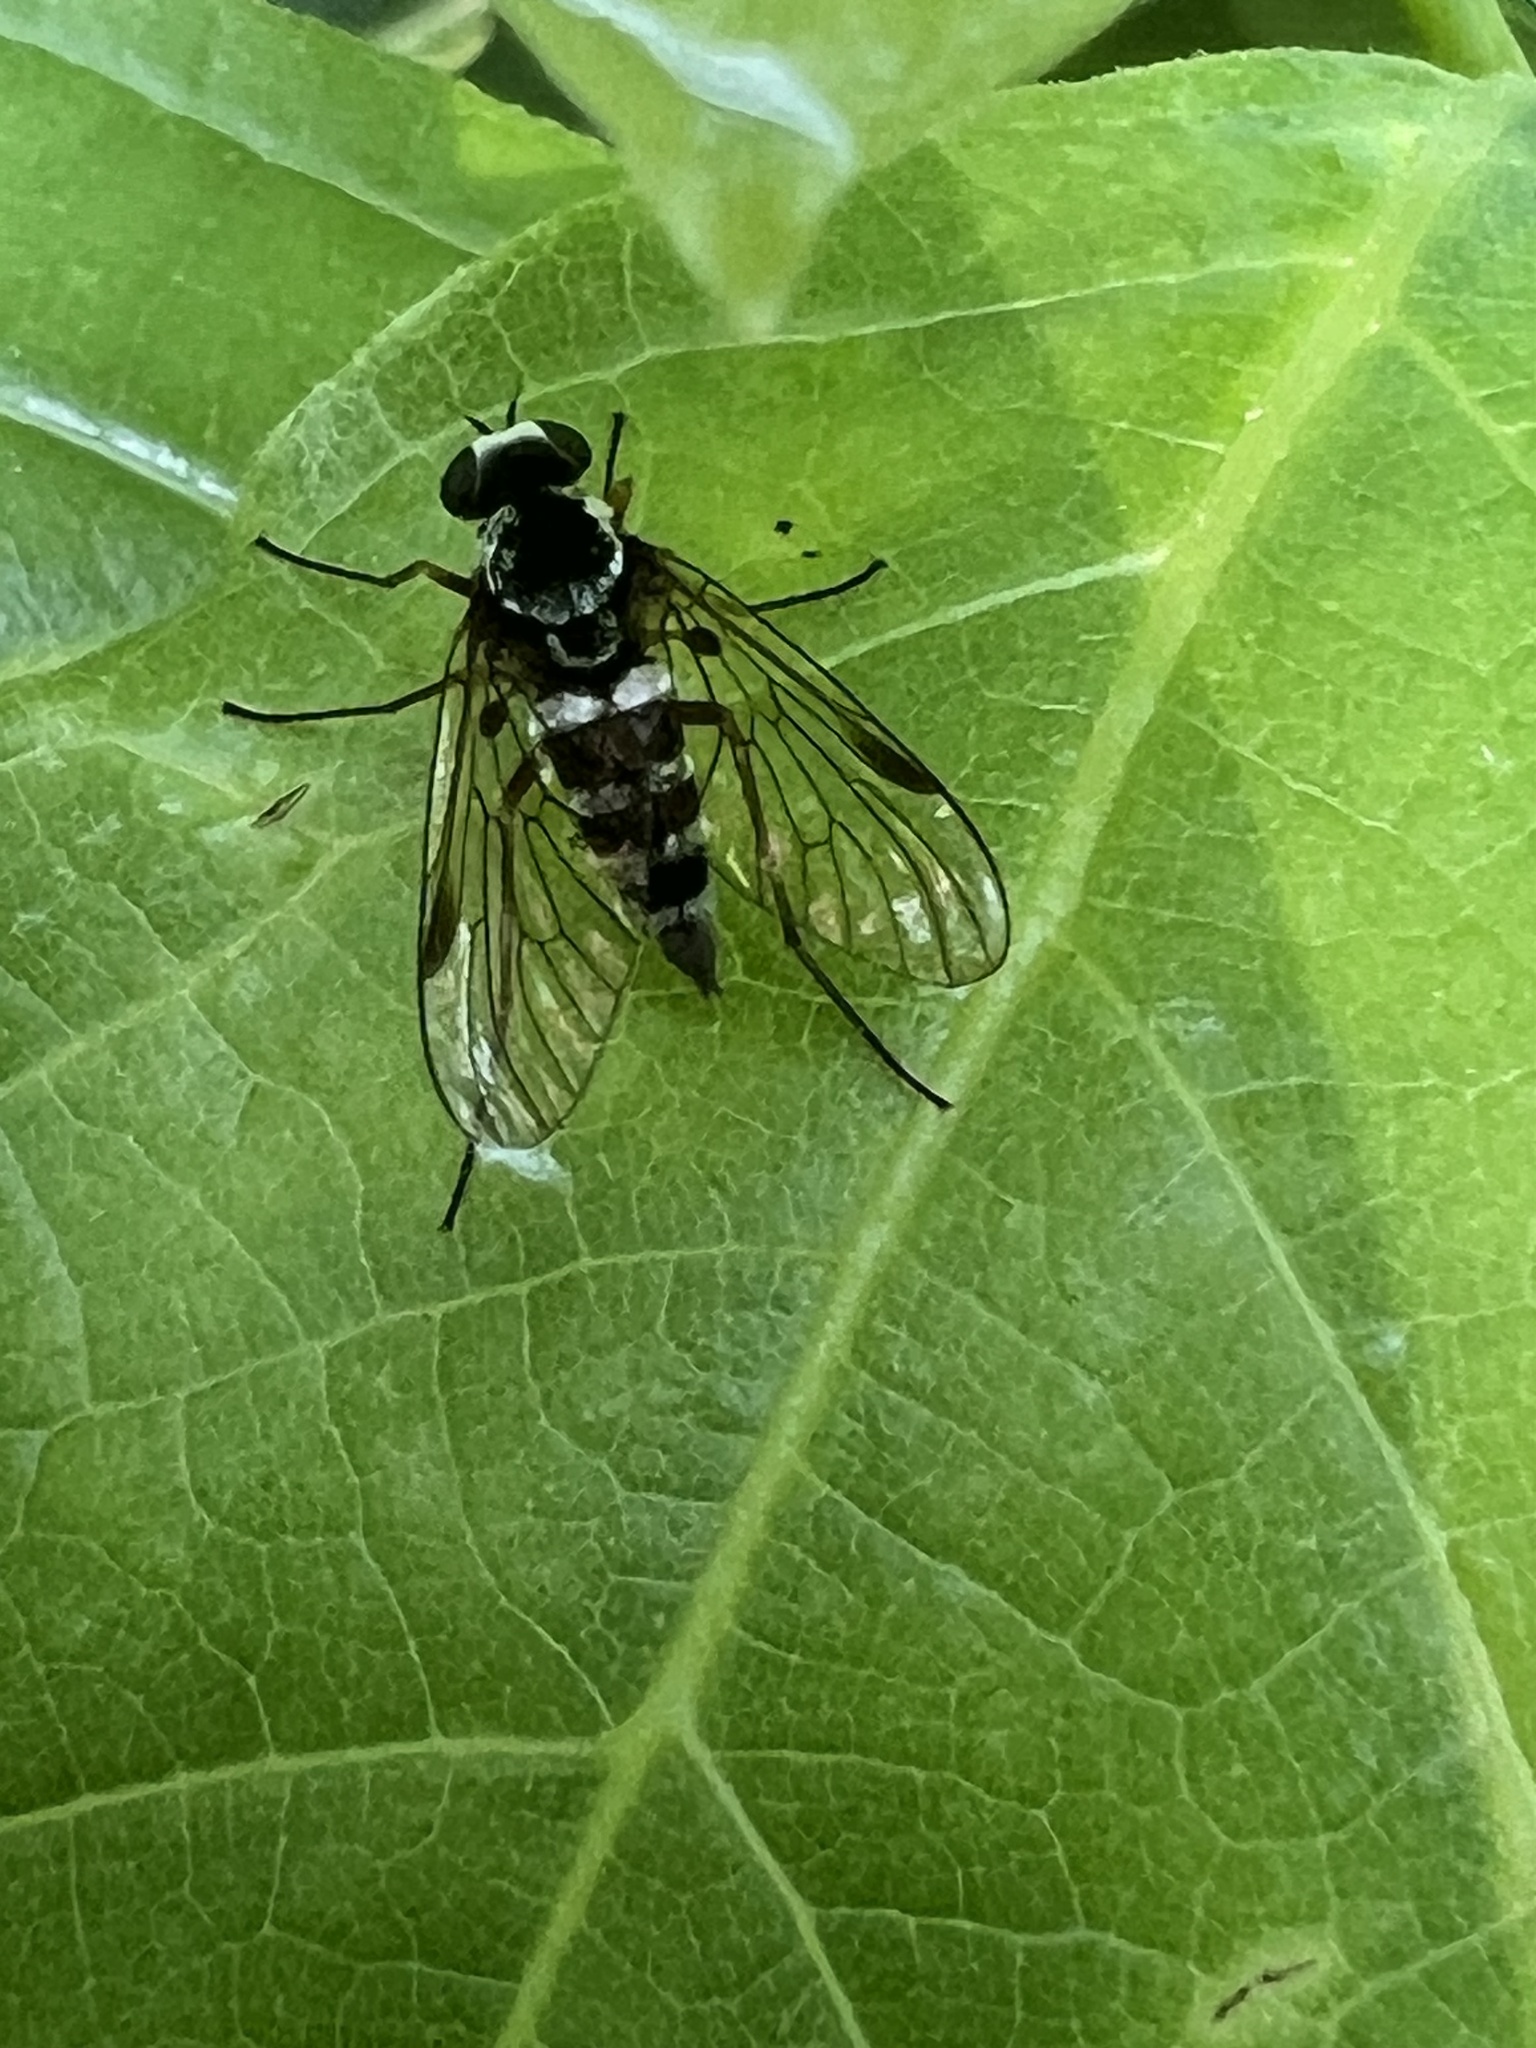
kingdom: Animalia
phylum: Arthropoda
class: Insecta
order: Diptera
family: Rhagionidae
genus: Chrysopilus
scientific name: Chrysopilus fasciatus
